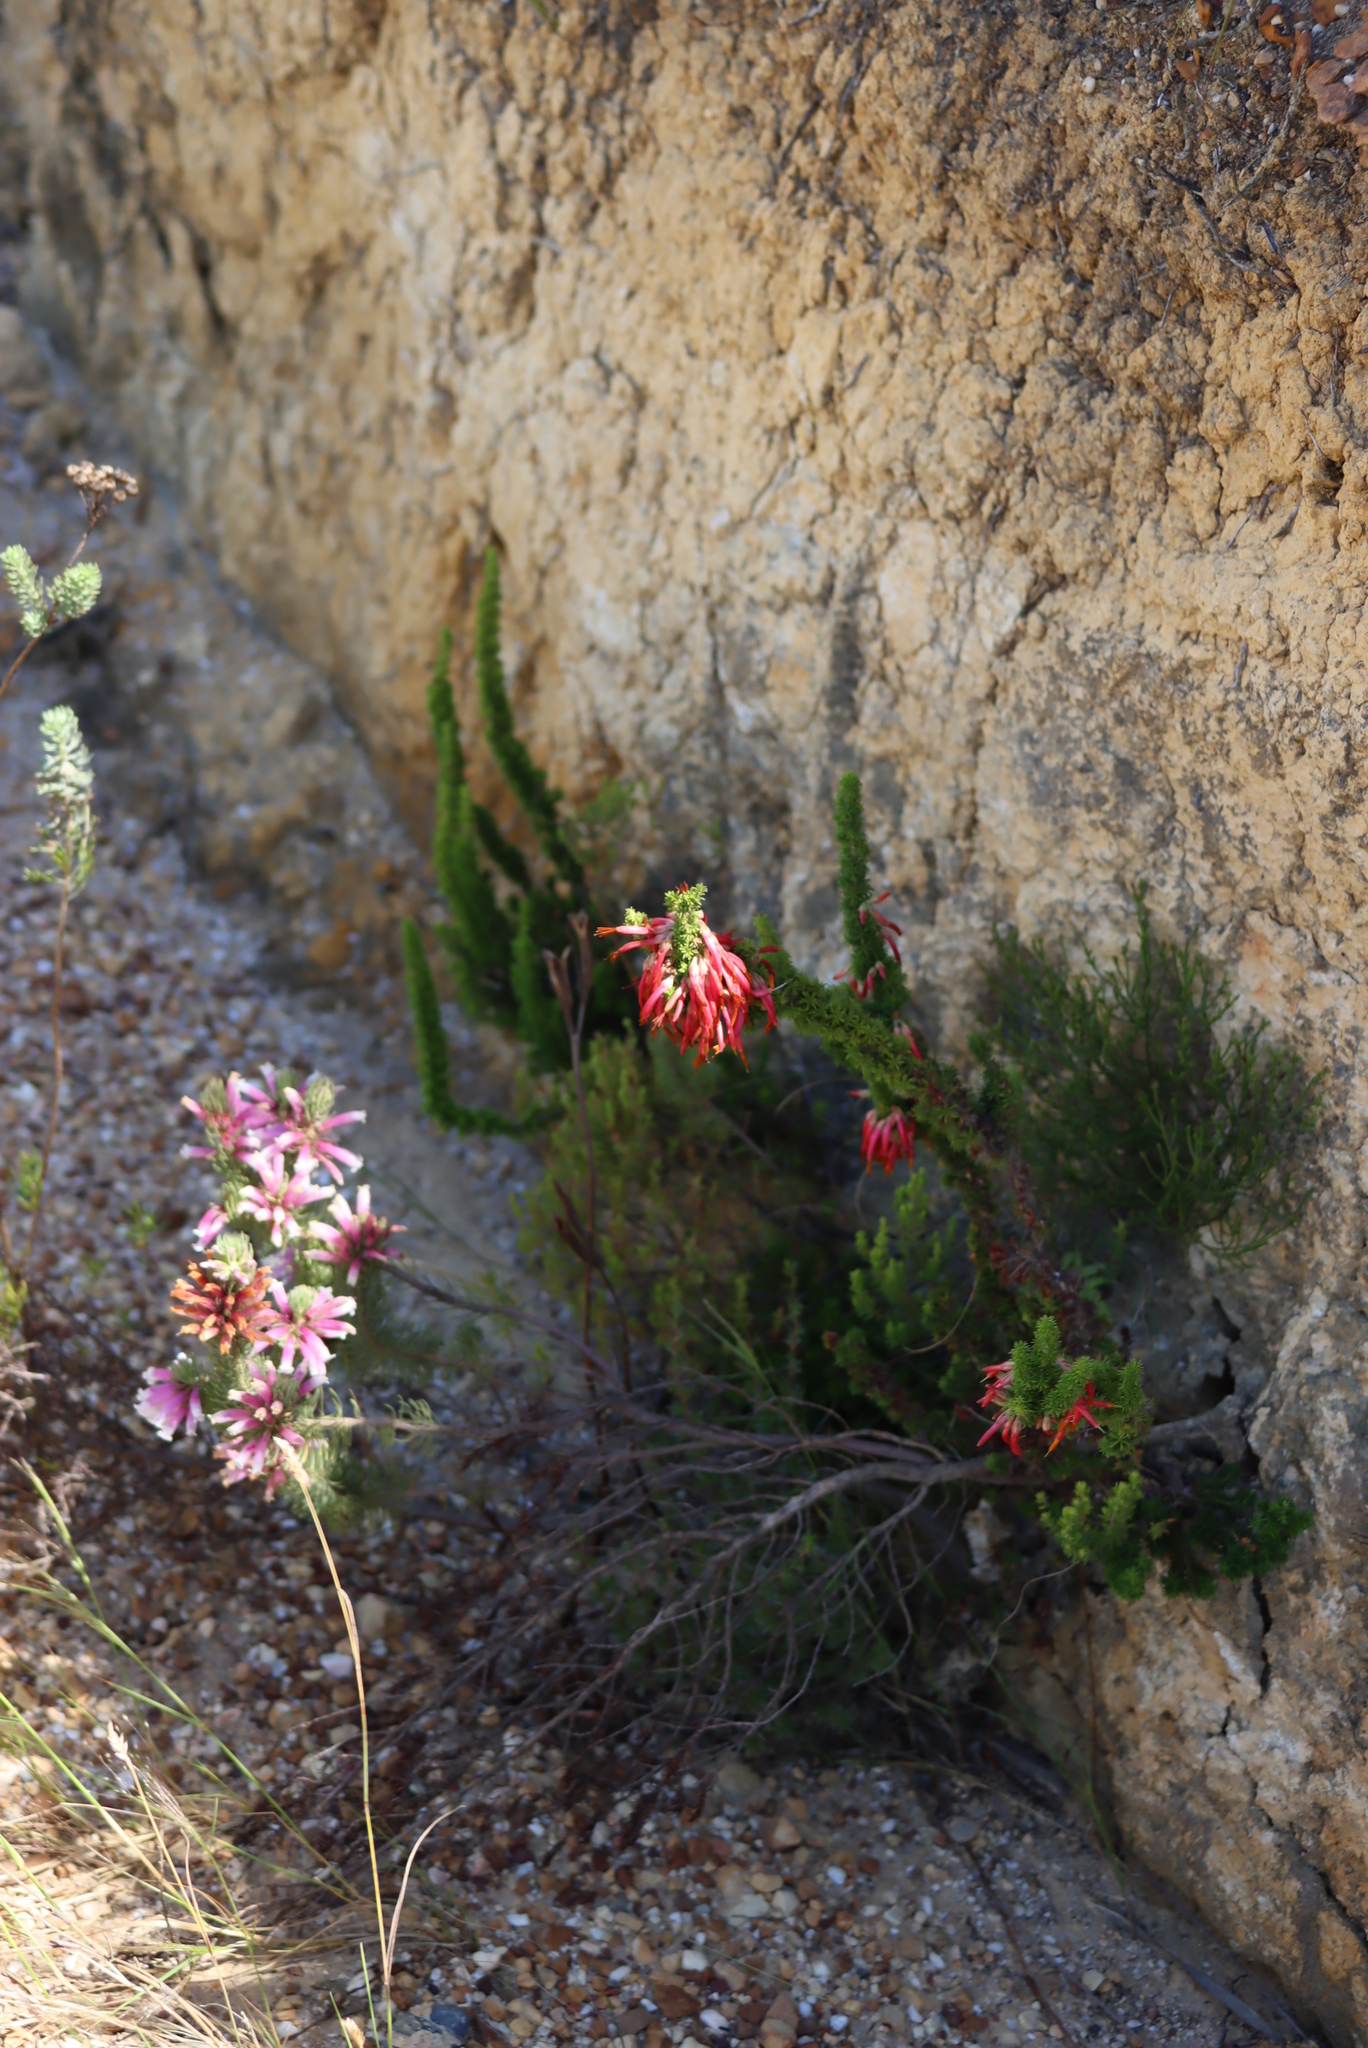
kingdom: Plantae
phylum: Tracheophyta
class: Magnoliopsida
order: Ericales
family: Ericaceae
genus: Erica
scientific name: Erica coccinea
